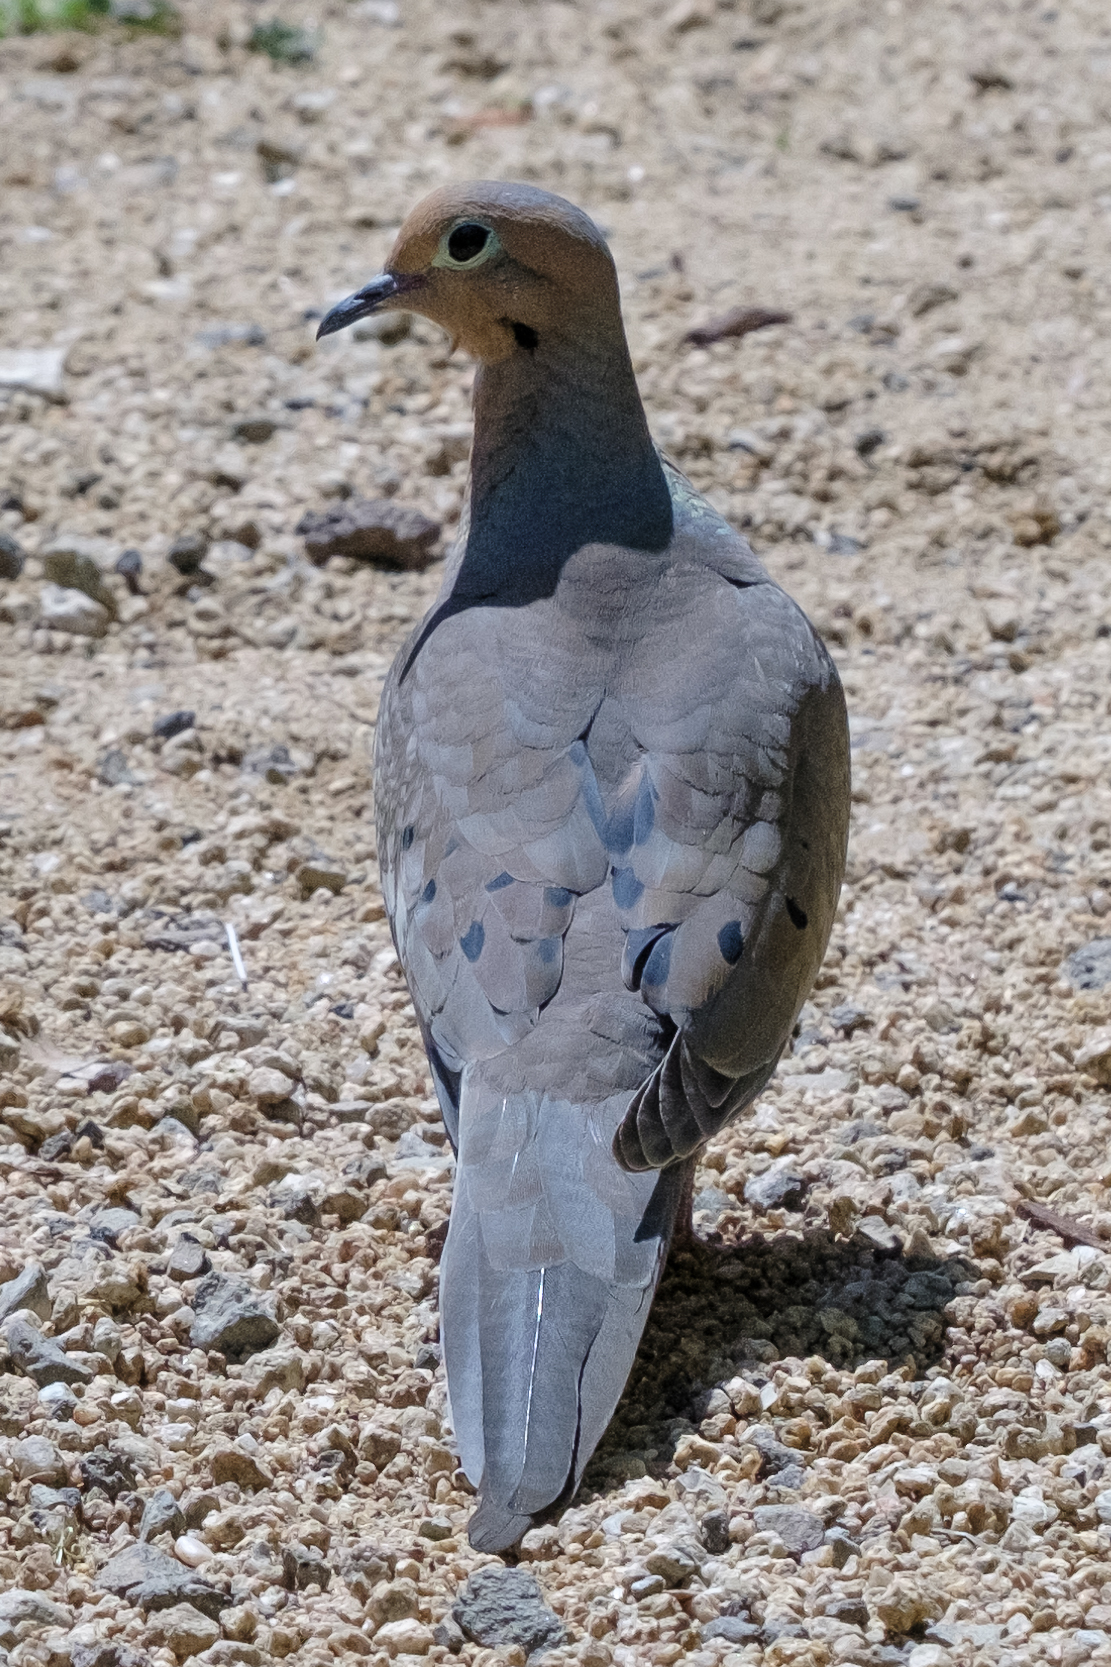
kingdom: Animalia
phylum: Chordata
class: Aves
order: Columbiformes
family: Columbidae
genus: Zenaida
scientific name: Zenaida macroura
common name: Mourning dove
